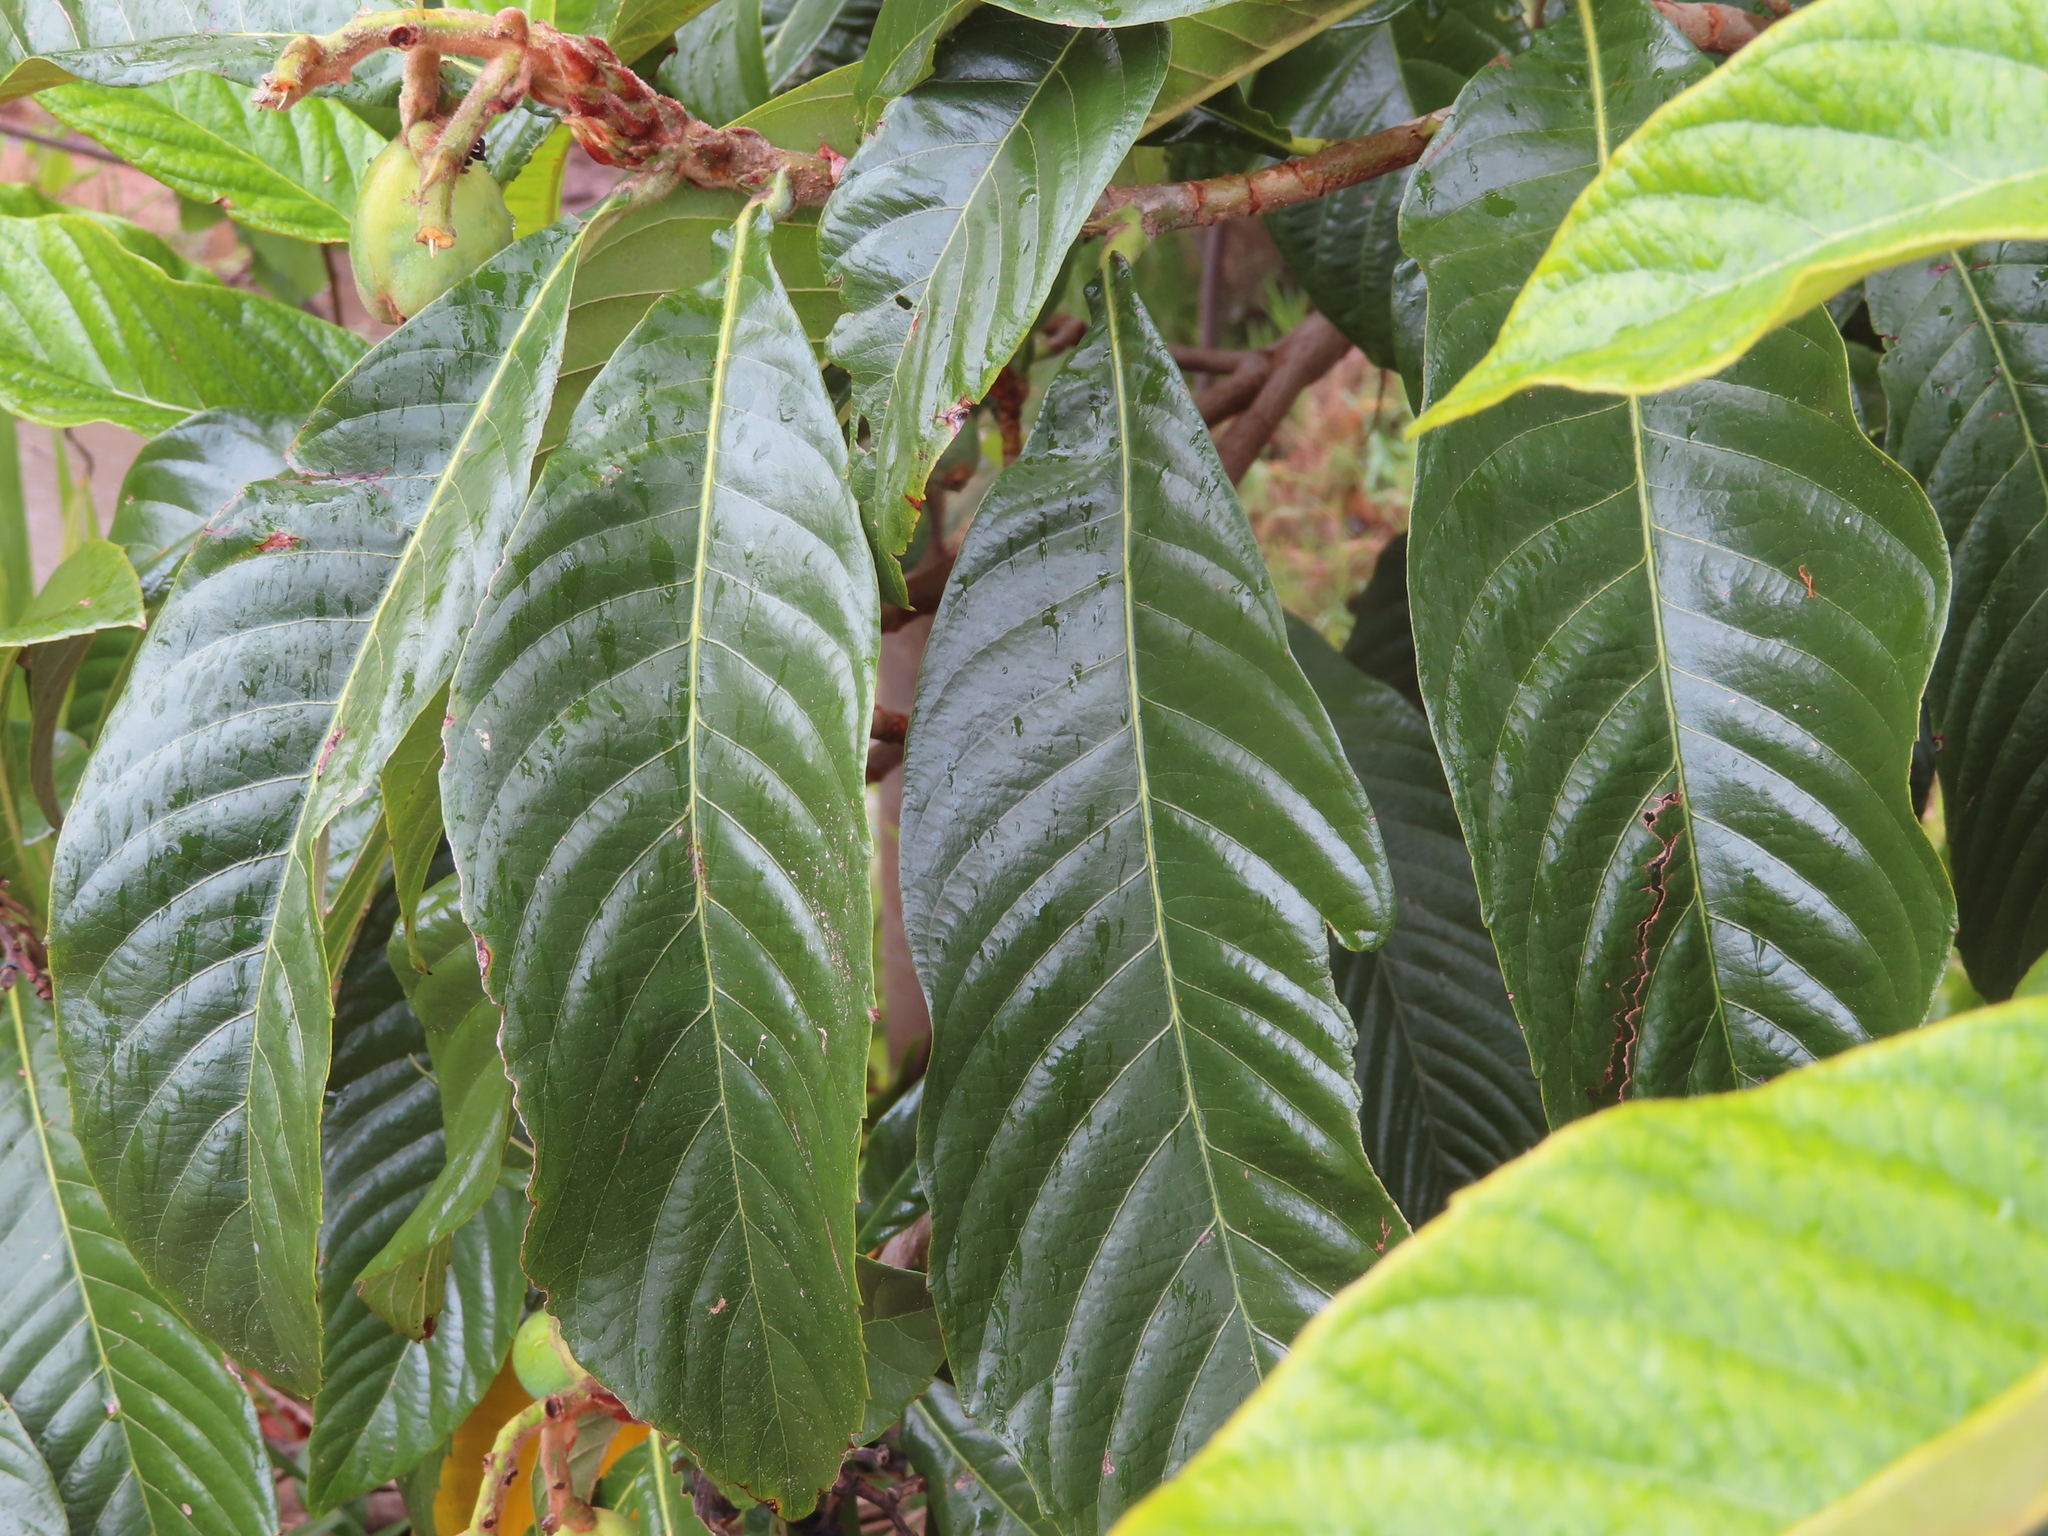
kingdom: Plantae
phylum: Tracheophyta
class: Magnoliopsida
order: Rosales
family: Rosaceae
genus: Rhaphiolepis
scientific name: Rhaphiolepis bibas
